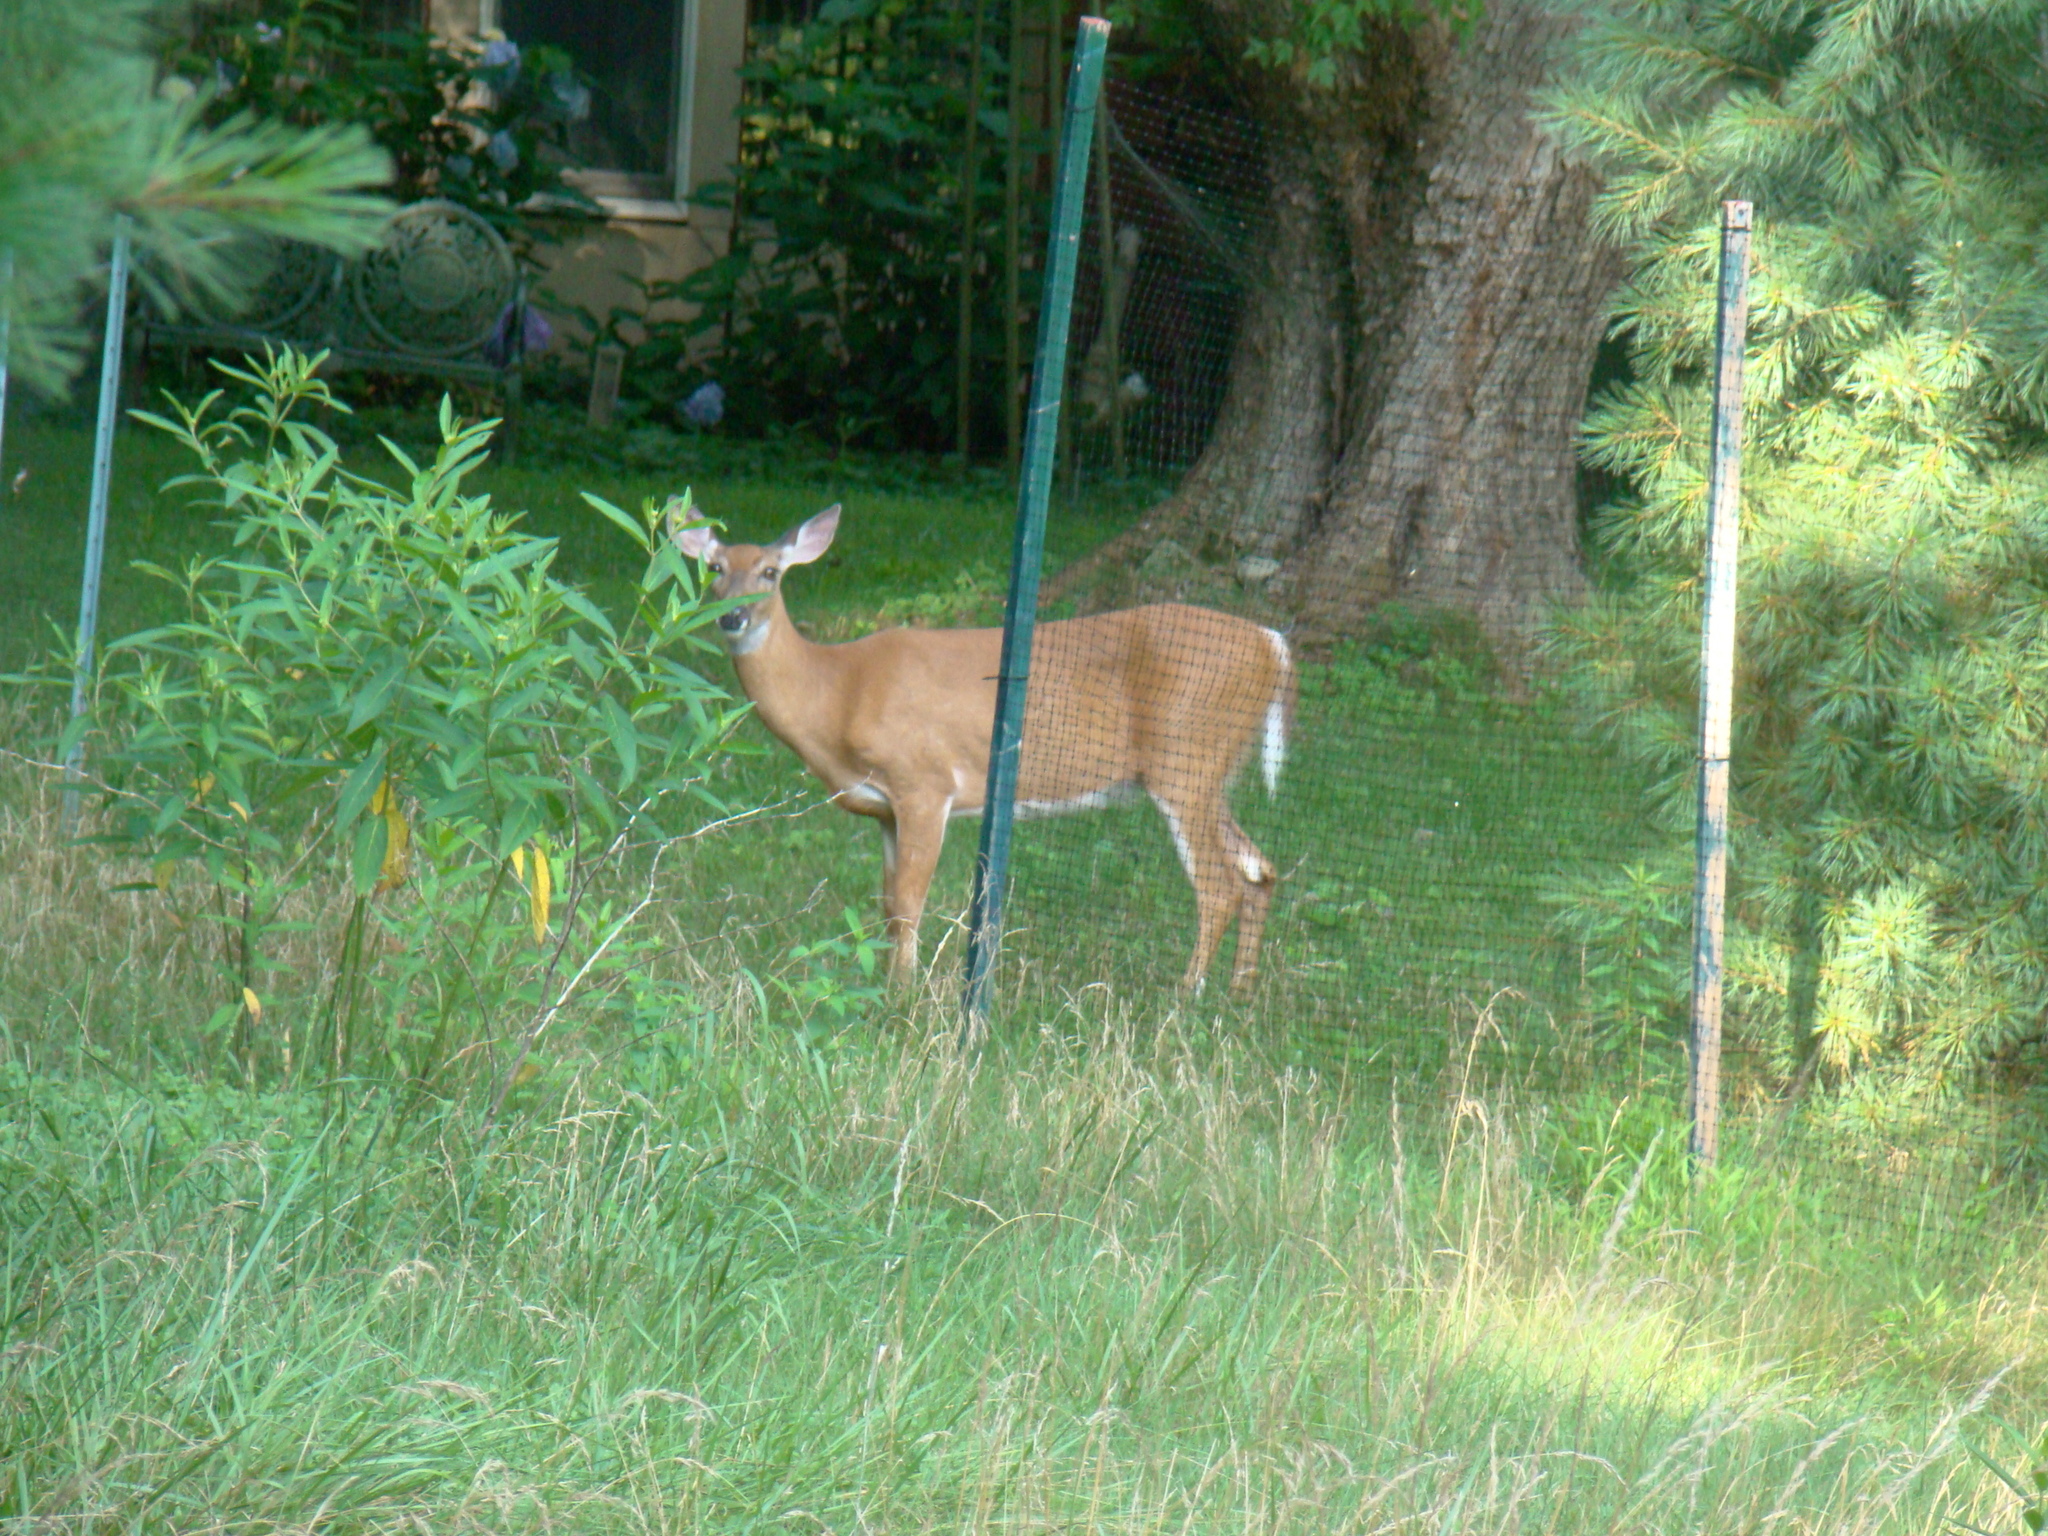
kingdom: Animalia
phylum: Chordata
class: Mammalia
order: Artiodactyla
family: Cervidae
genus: Odocoileus
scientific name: Odocoileus virginianus
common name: White-tailed deer
